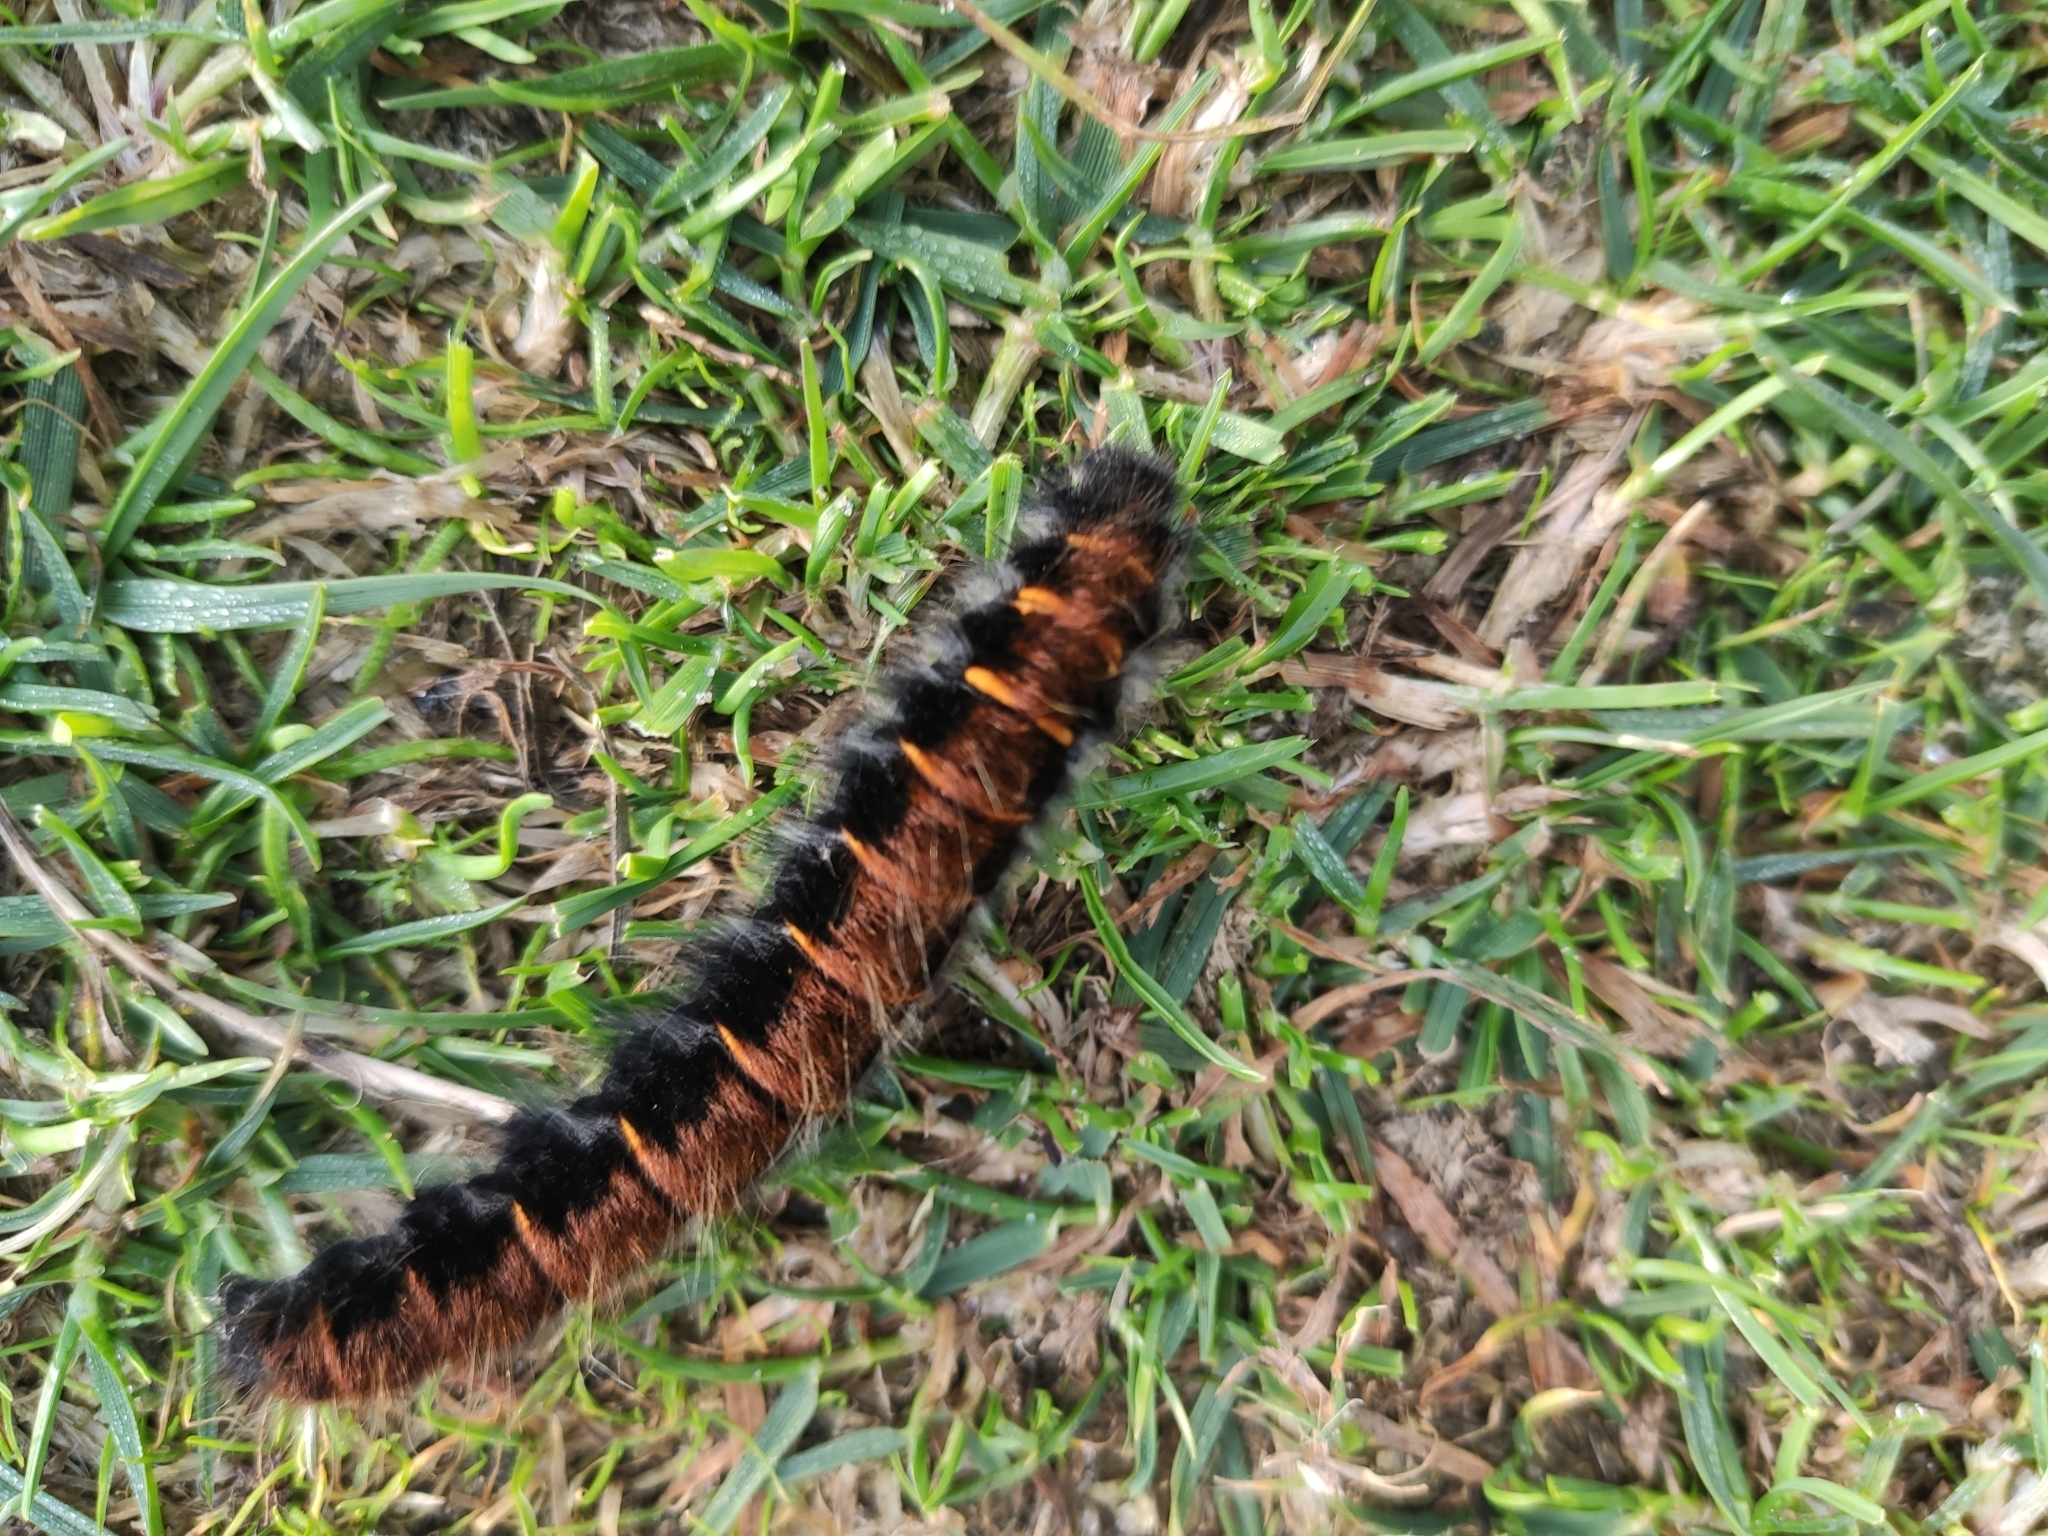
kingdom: Animalia
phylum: Arthropoda
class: Insecta
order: Lepidoptera
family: Lasiocampidae
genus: Macrothylacia
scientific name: Macrothylacia rubi
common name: Fox moth
